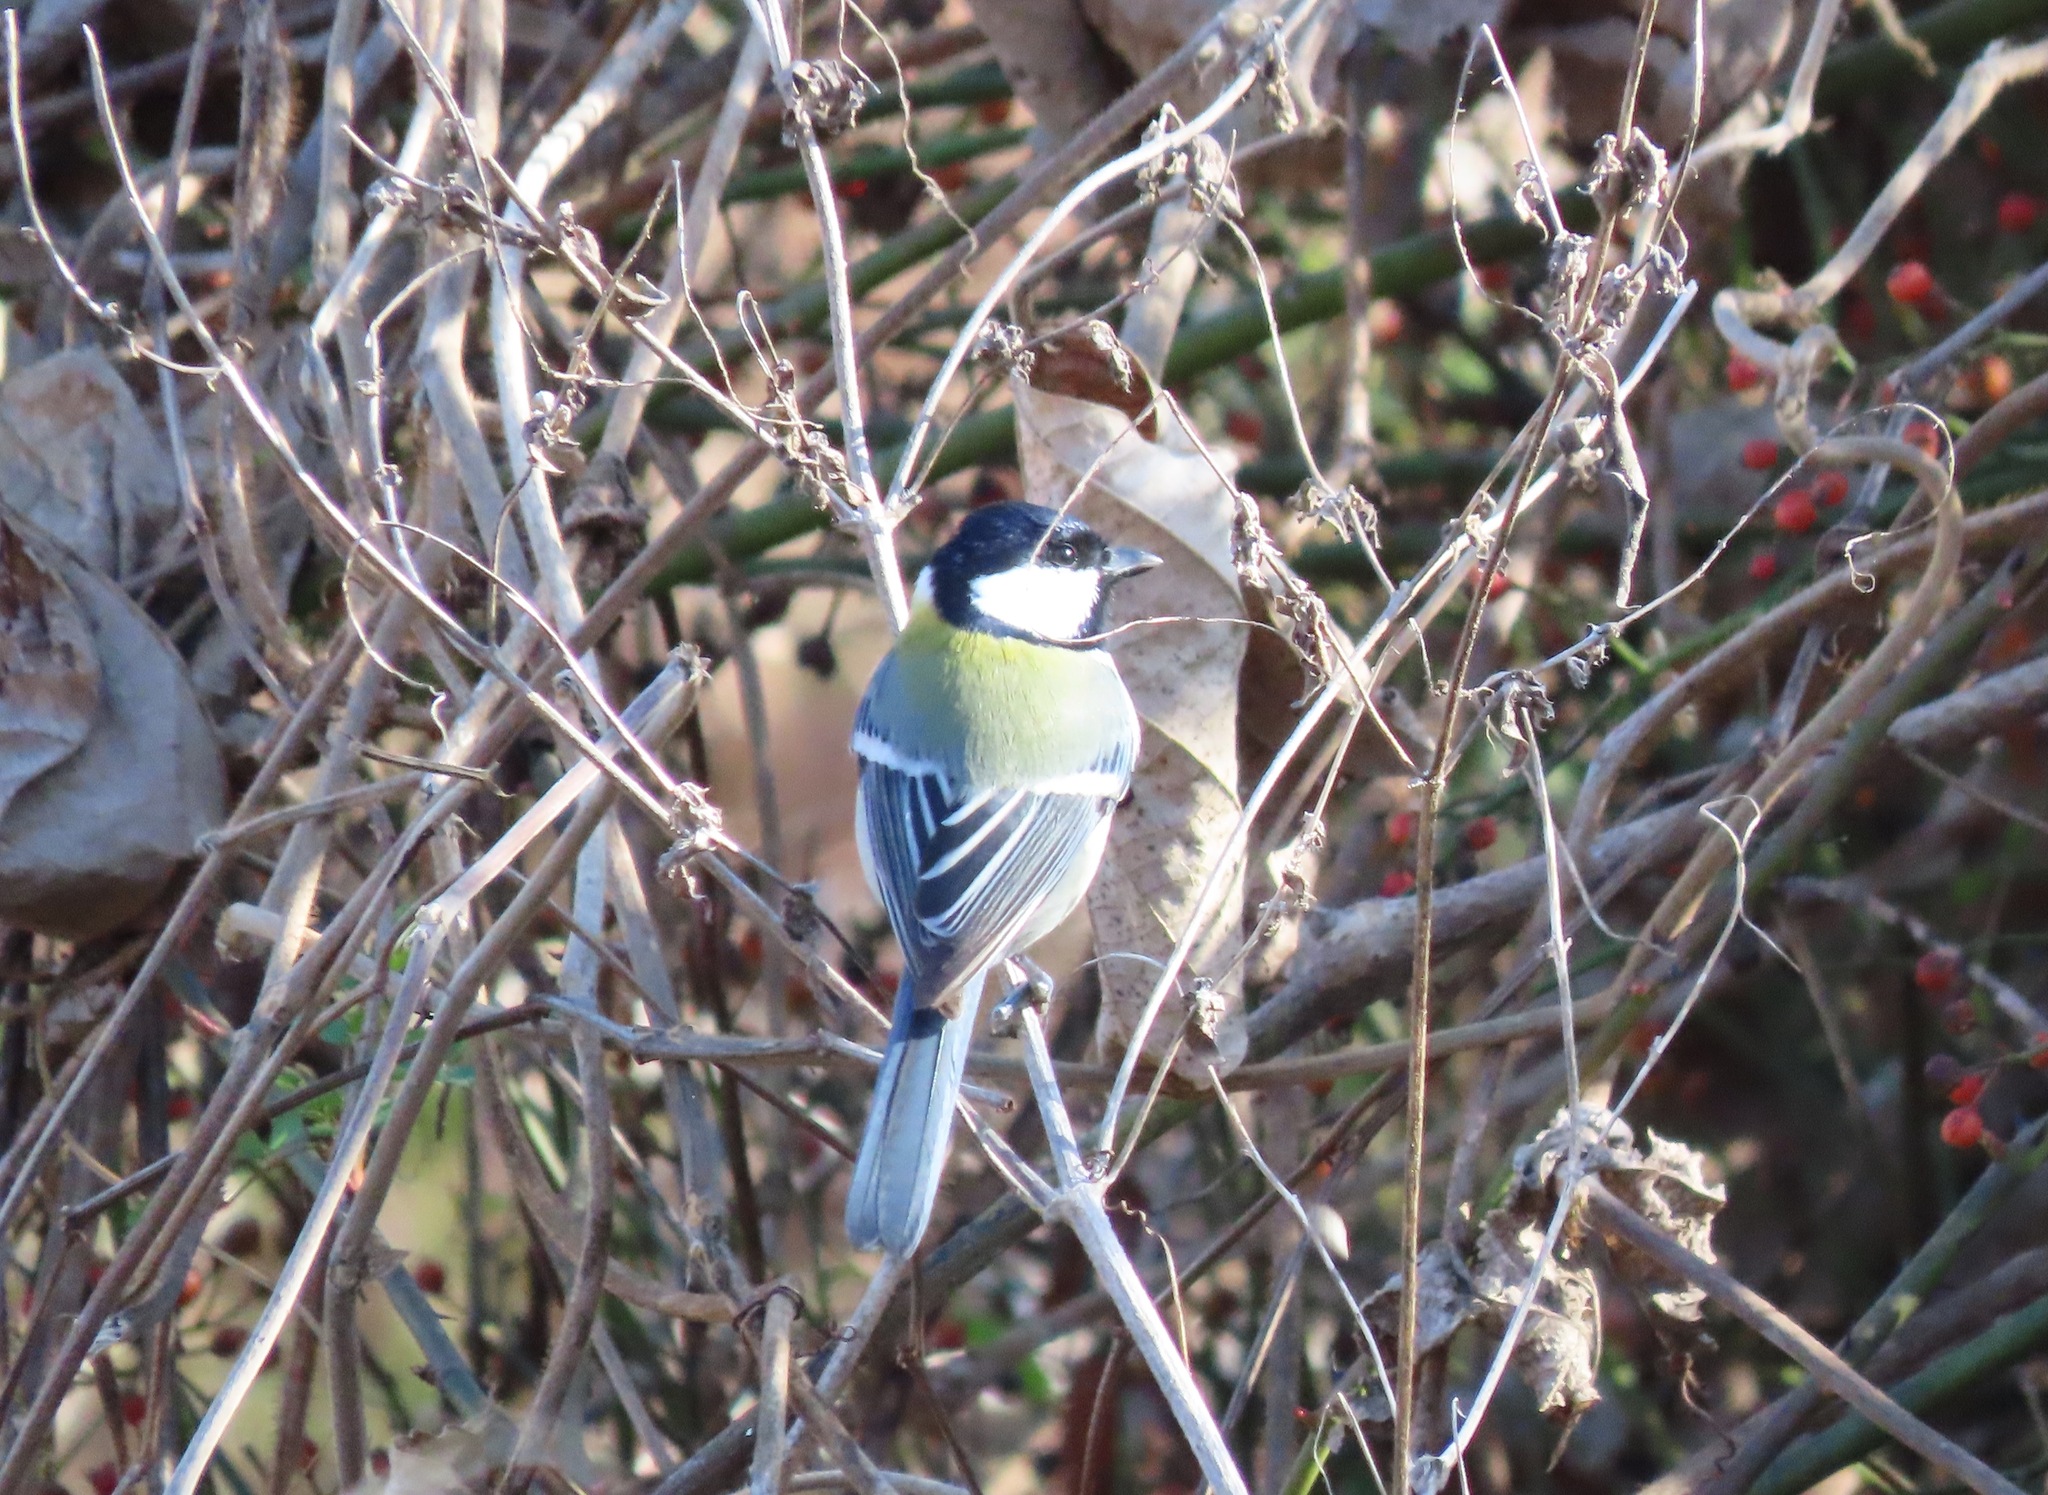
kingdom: Animalia
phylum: Chordata
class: Aves
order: Passeriformes
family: Paridae
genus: Parus
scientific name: Parus minor
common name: Japanese tit
